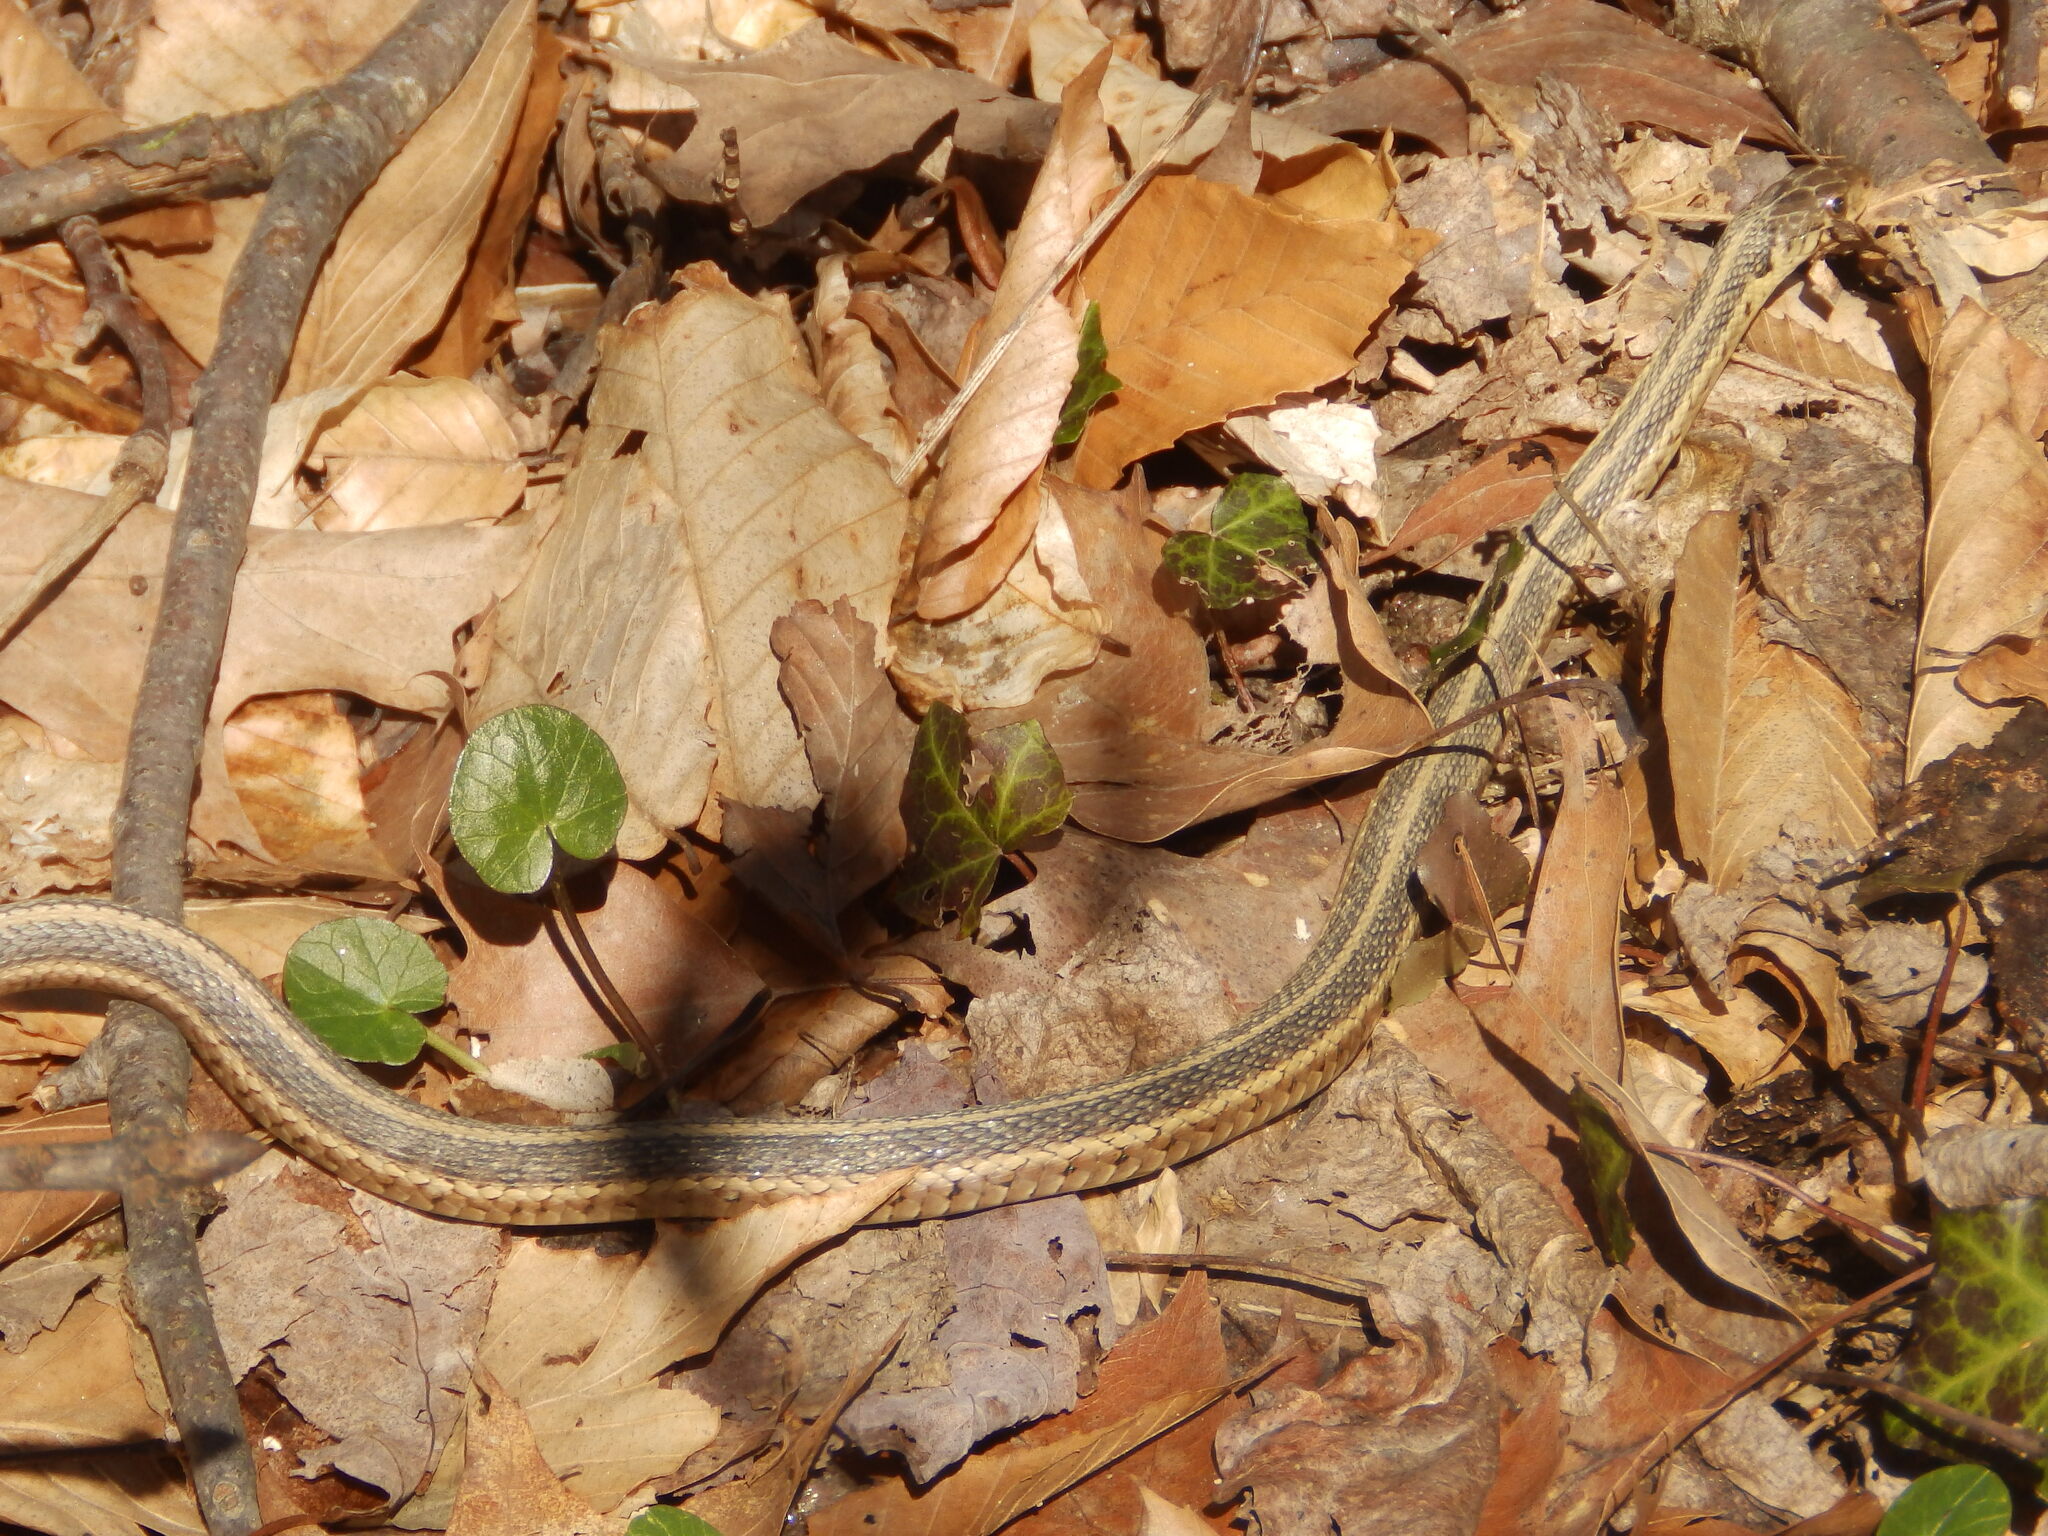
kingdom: Animalia
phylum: Chordata
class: Squamata
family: Colubridae
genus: Thamnophis
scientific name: Thamnophis sirtalis
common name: Common garter snake
